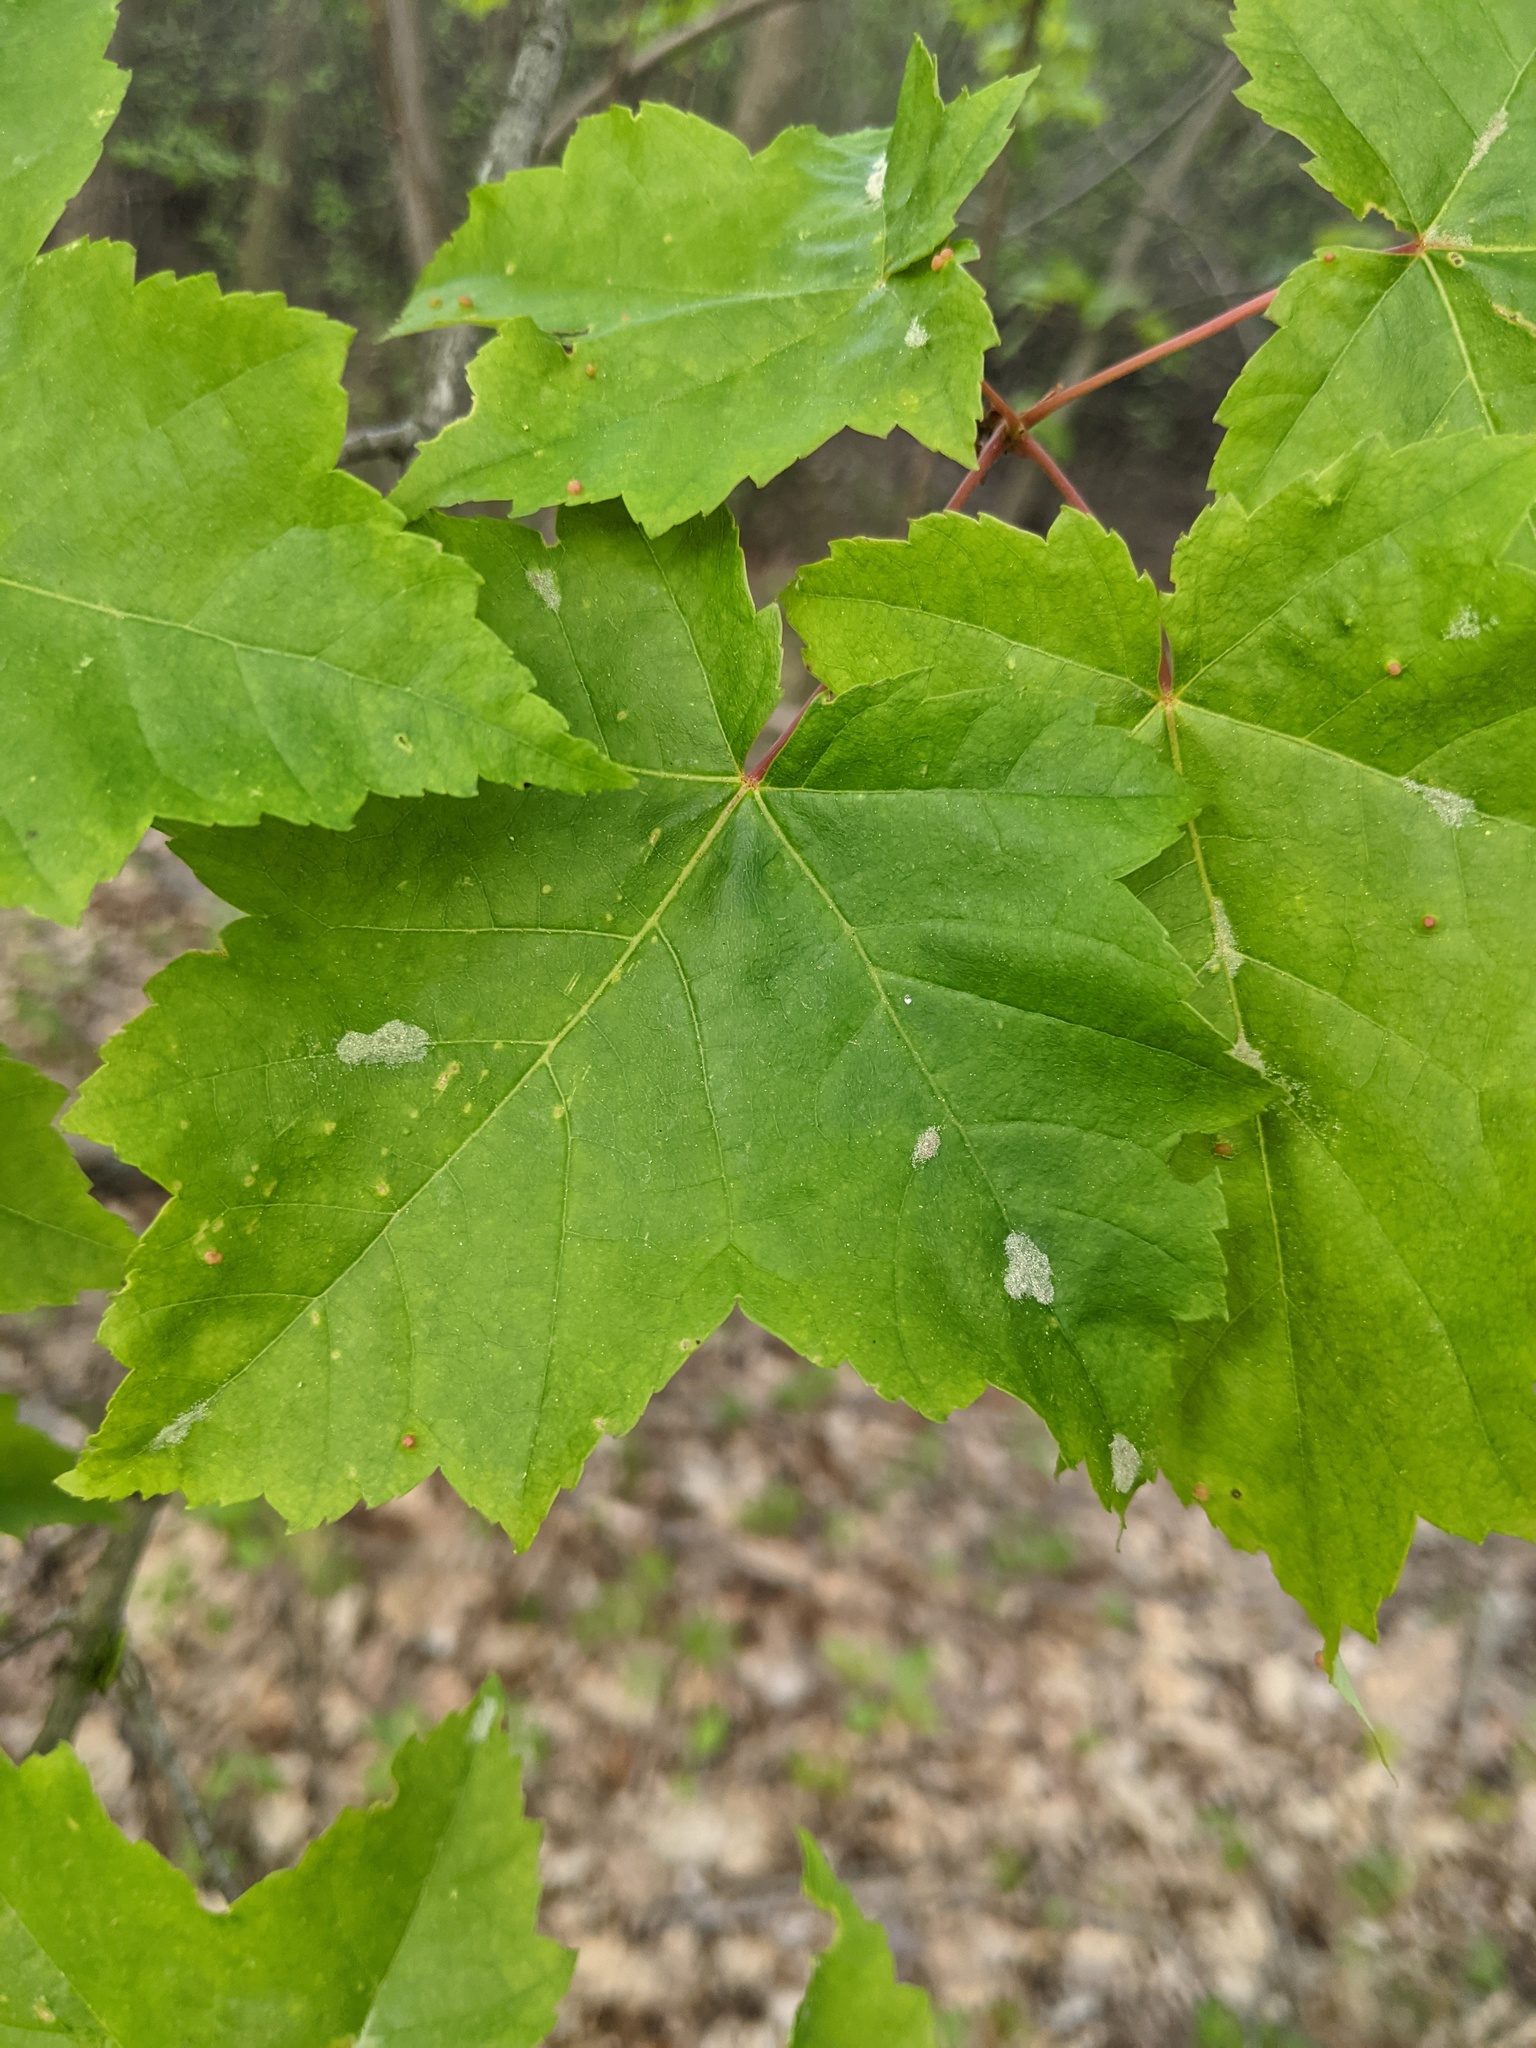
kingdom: Animalia
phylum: Arthropoda
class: Arachnida
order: Trombidiformes
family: Eriophyidae
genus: Aculus
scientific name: Aculus
